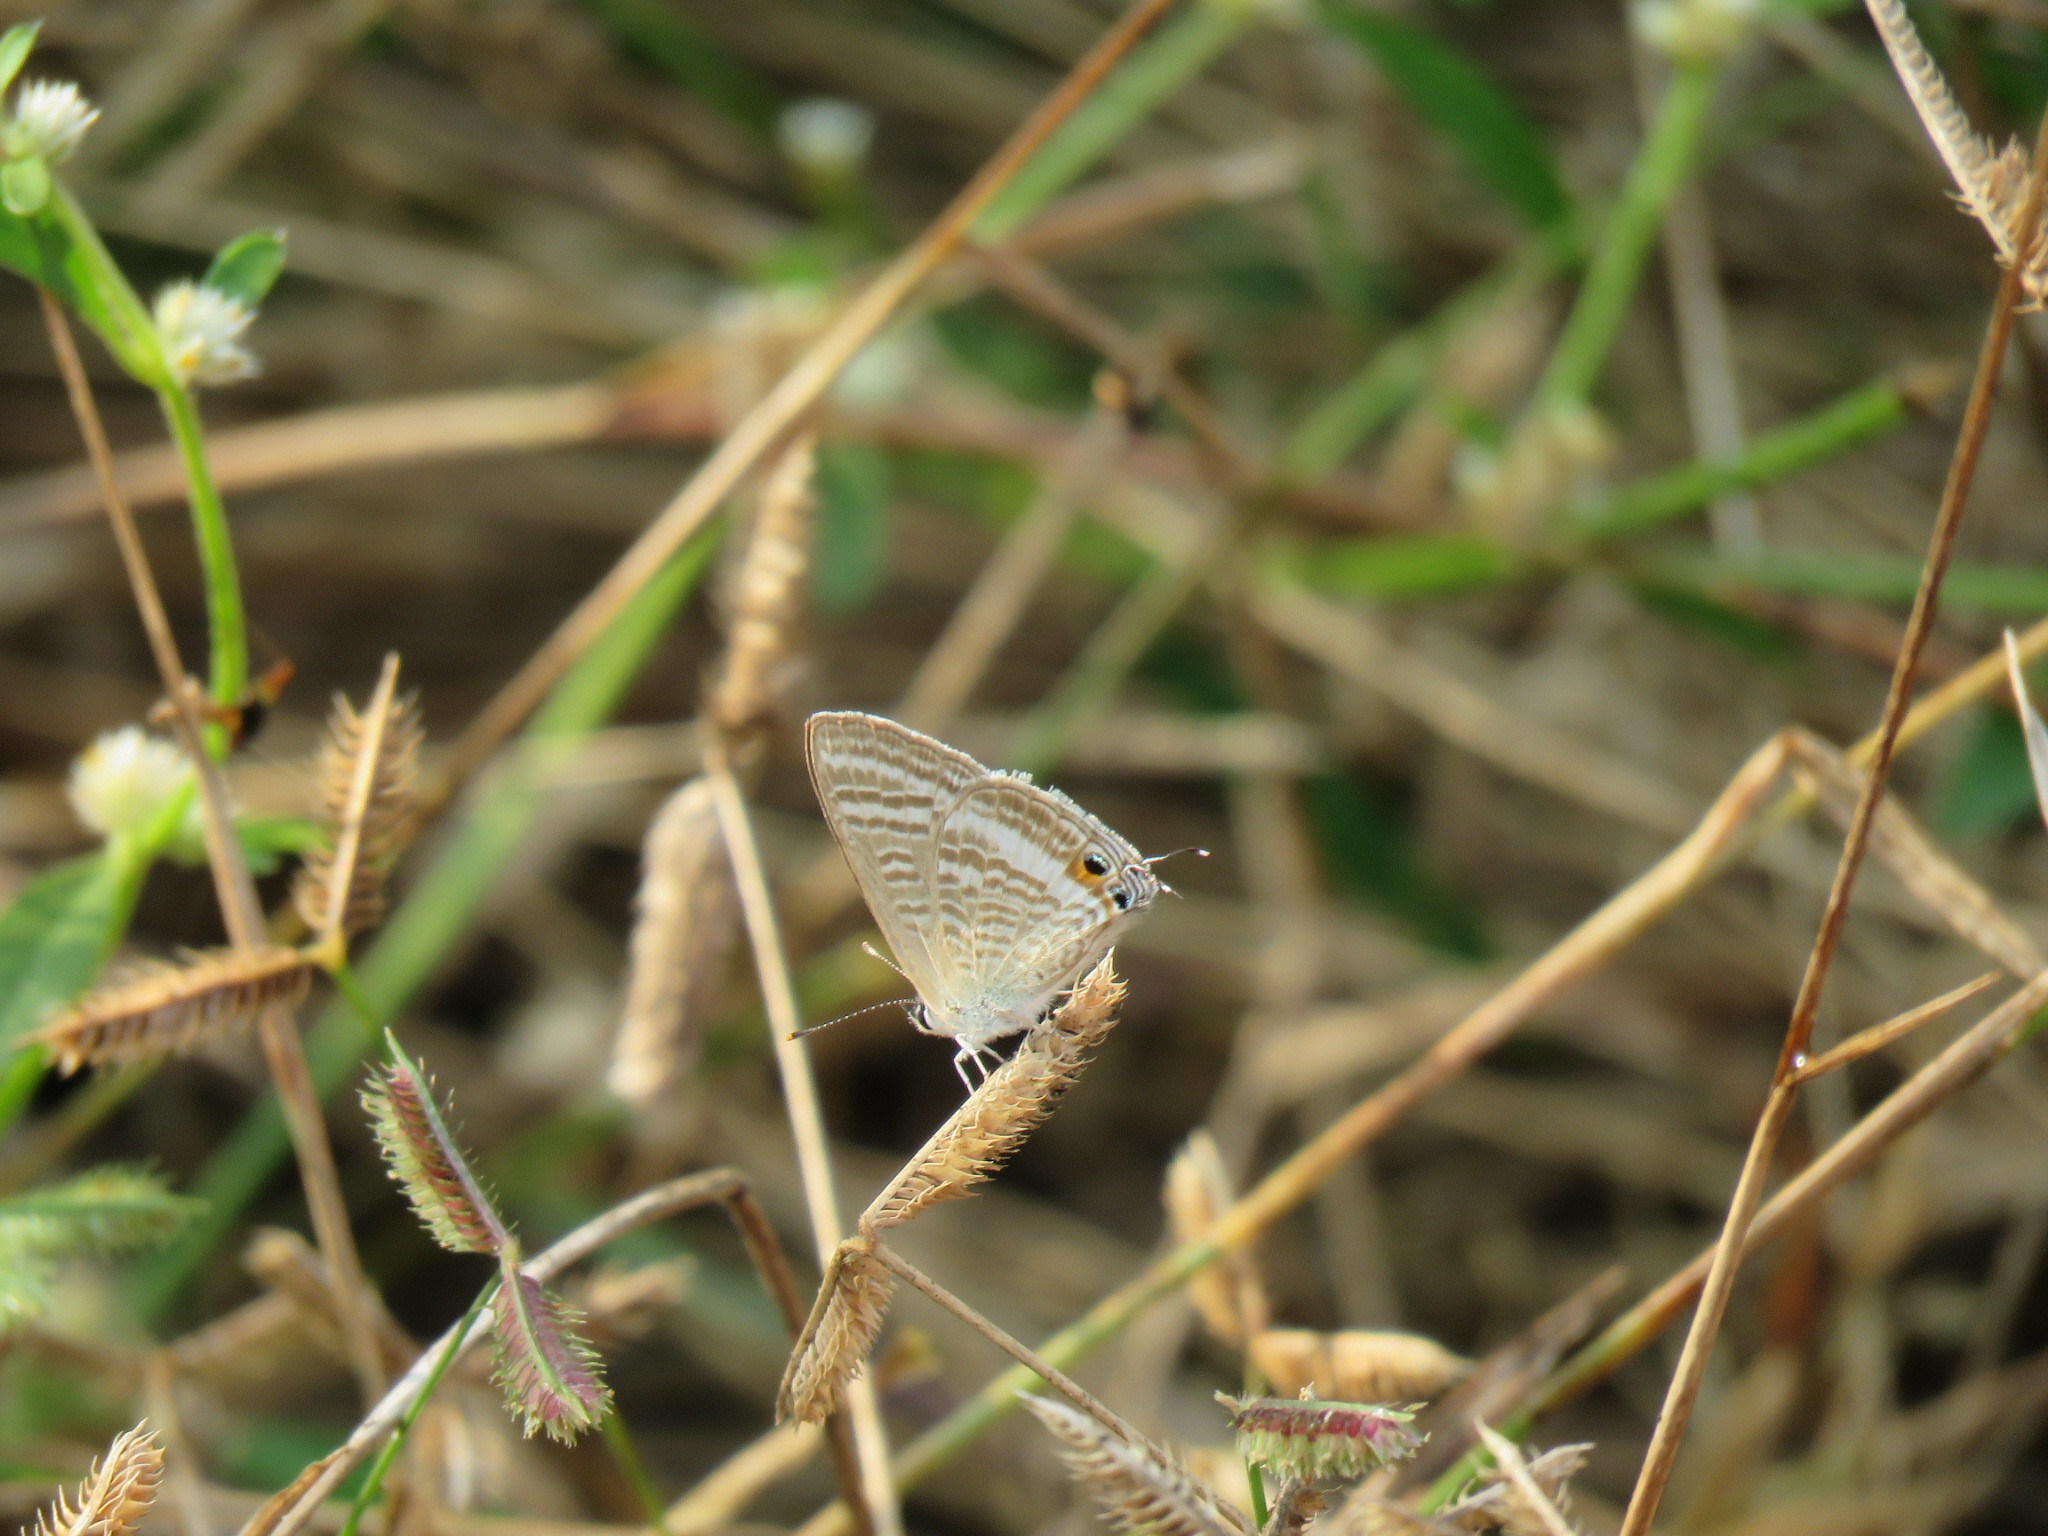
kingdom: Animalia
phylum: Arthropoda
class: Insecta
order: Lepidoptera
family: Lycaenidae
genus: Lampides
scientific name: Lampides boeticus
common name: Long-tailed blue
